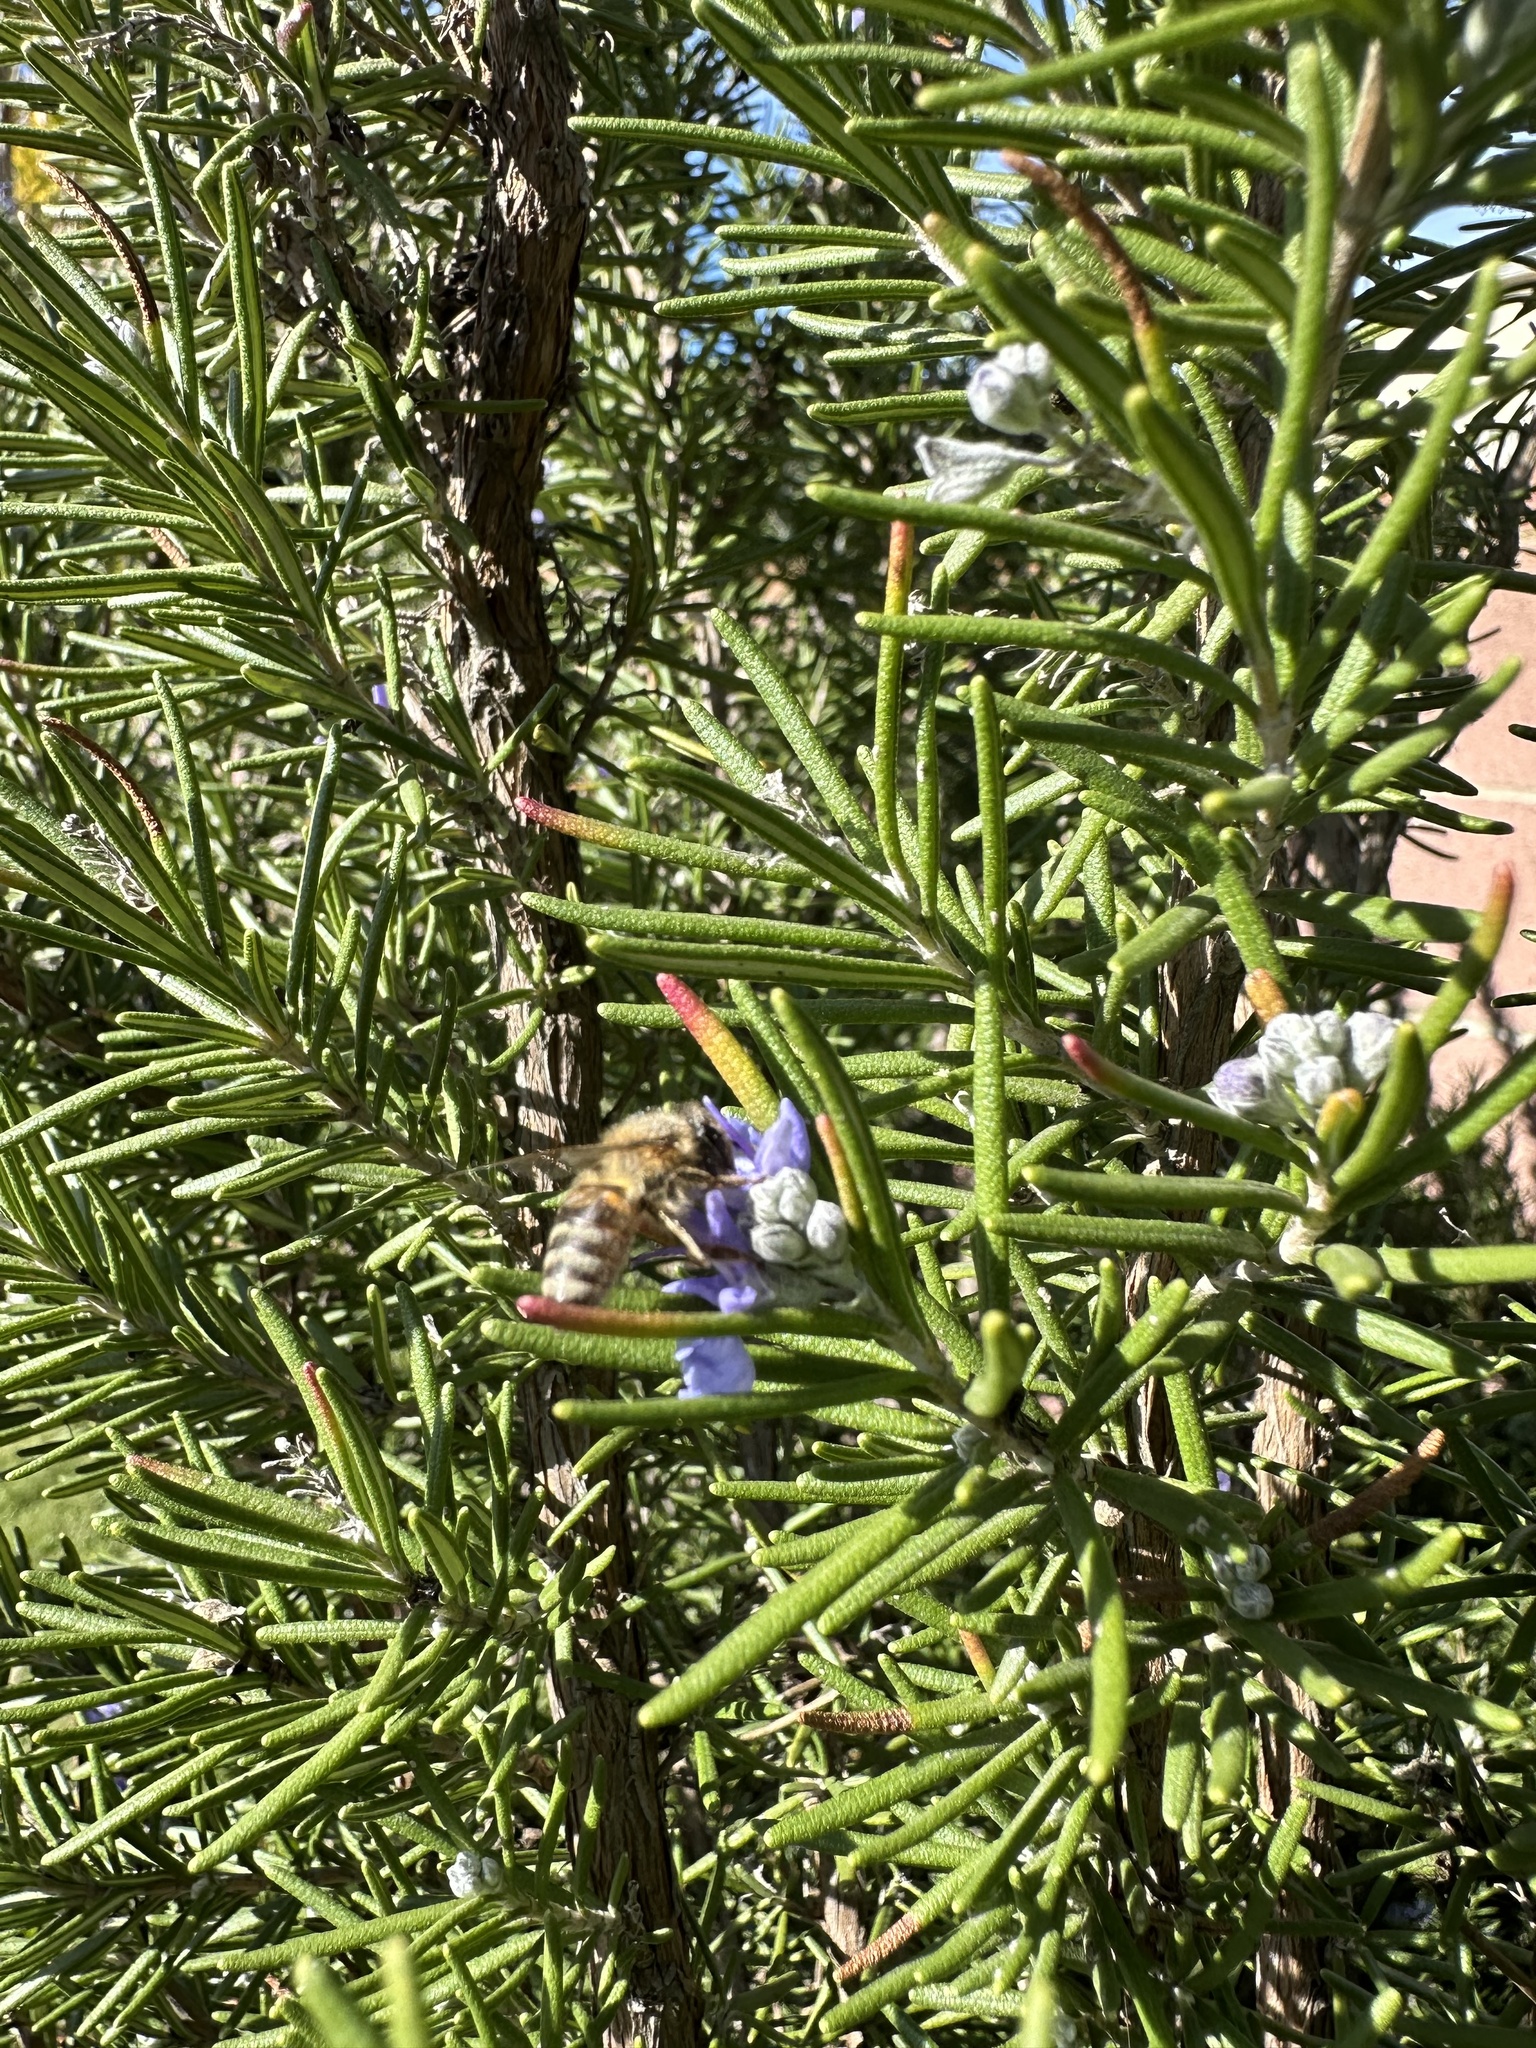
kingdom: Animalia
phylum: Arthropoda
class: Insecta
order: Hymenoptera
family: Apidae
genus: Apis
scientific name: Apis mellifera
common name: Honey bee
